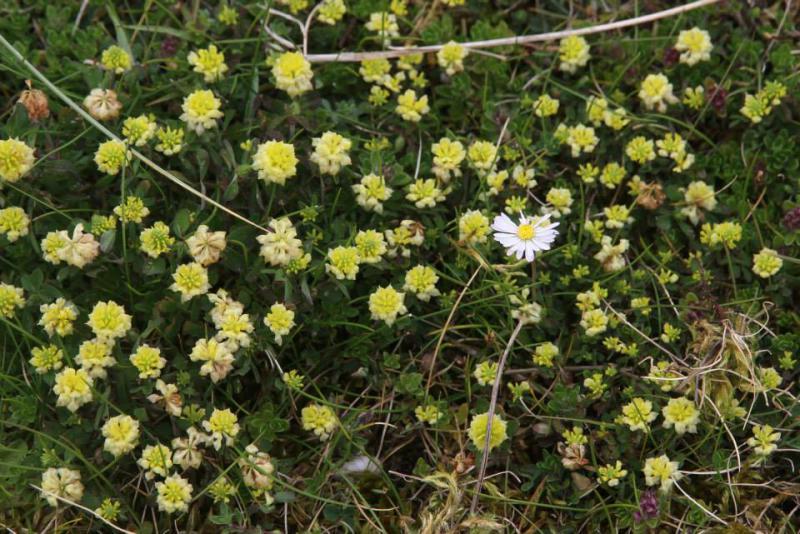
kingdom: Plantae
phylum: Tracheophyta
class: Magnoliopsida
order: Fabales
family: Fabaceae
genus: Trifolium
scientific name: Trifolium campestre
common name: Field clover
